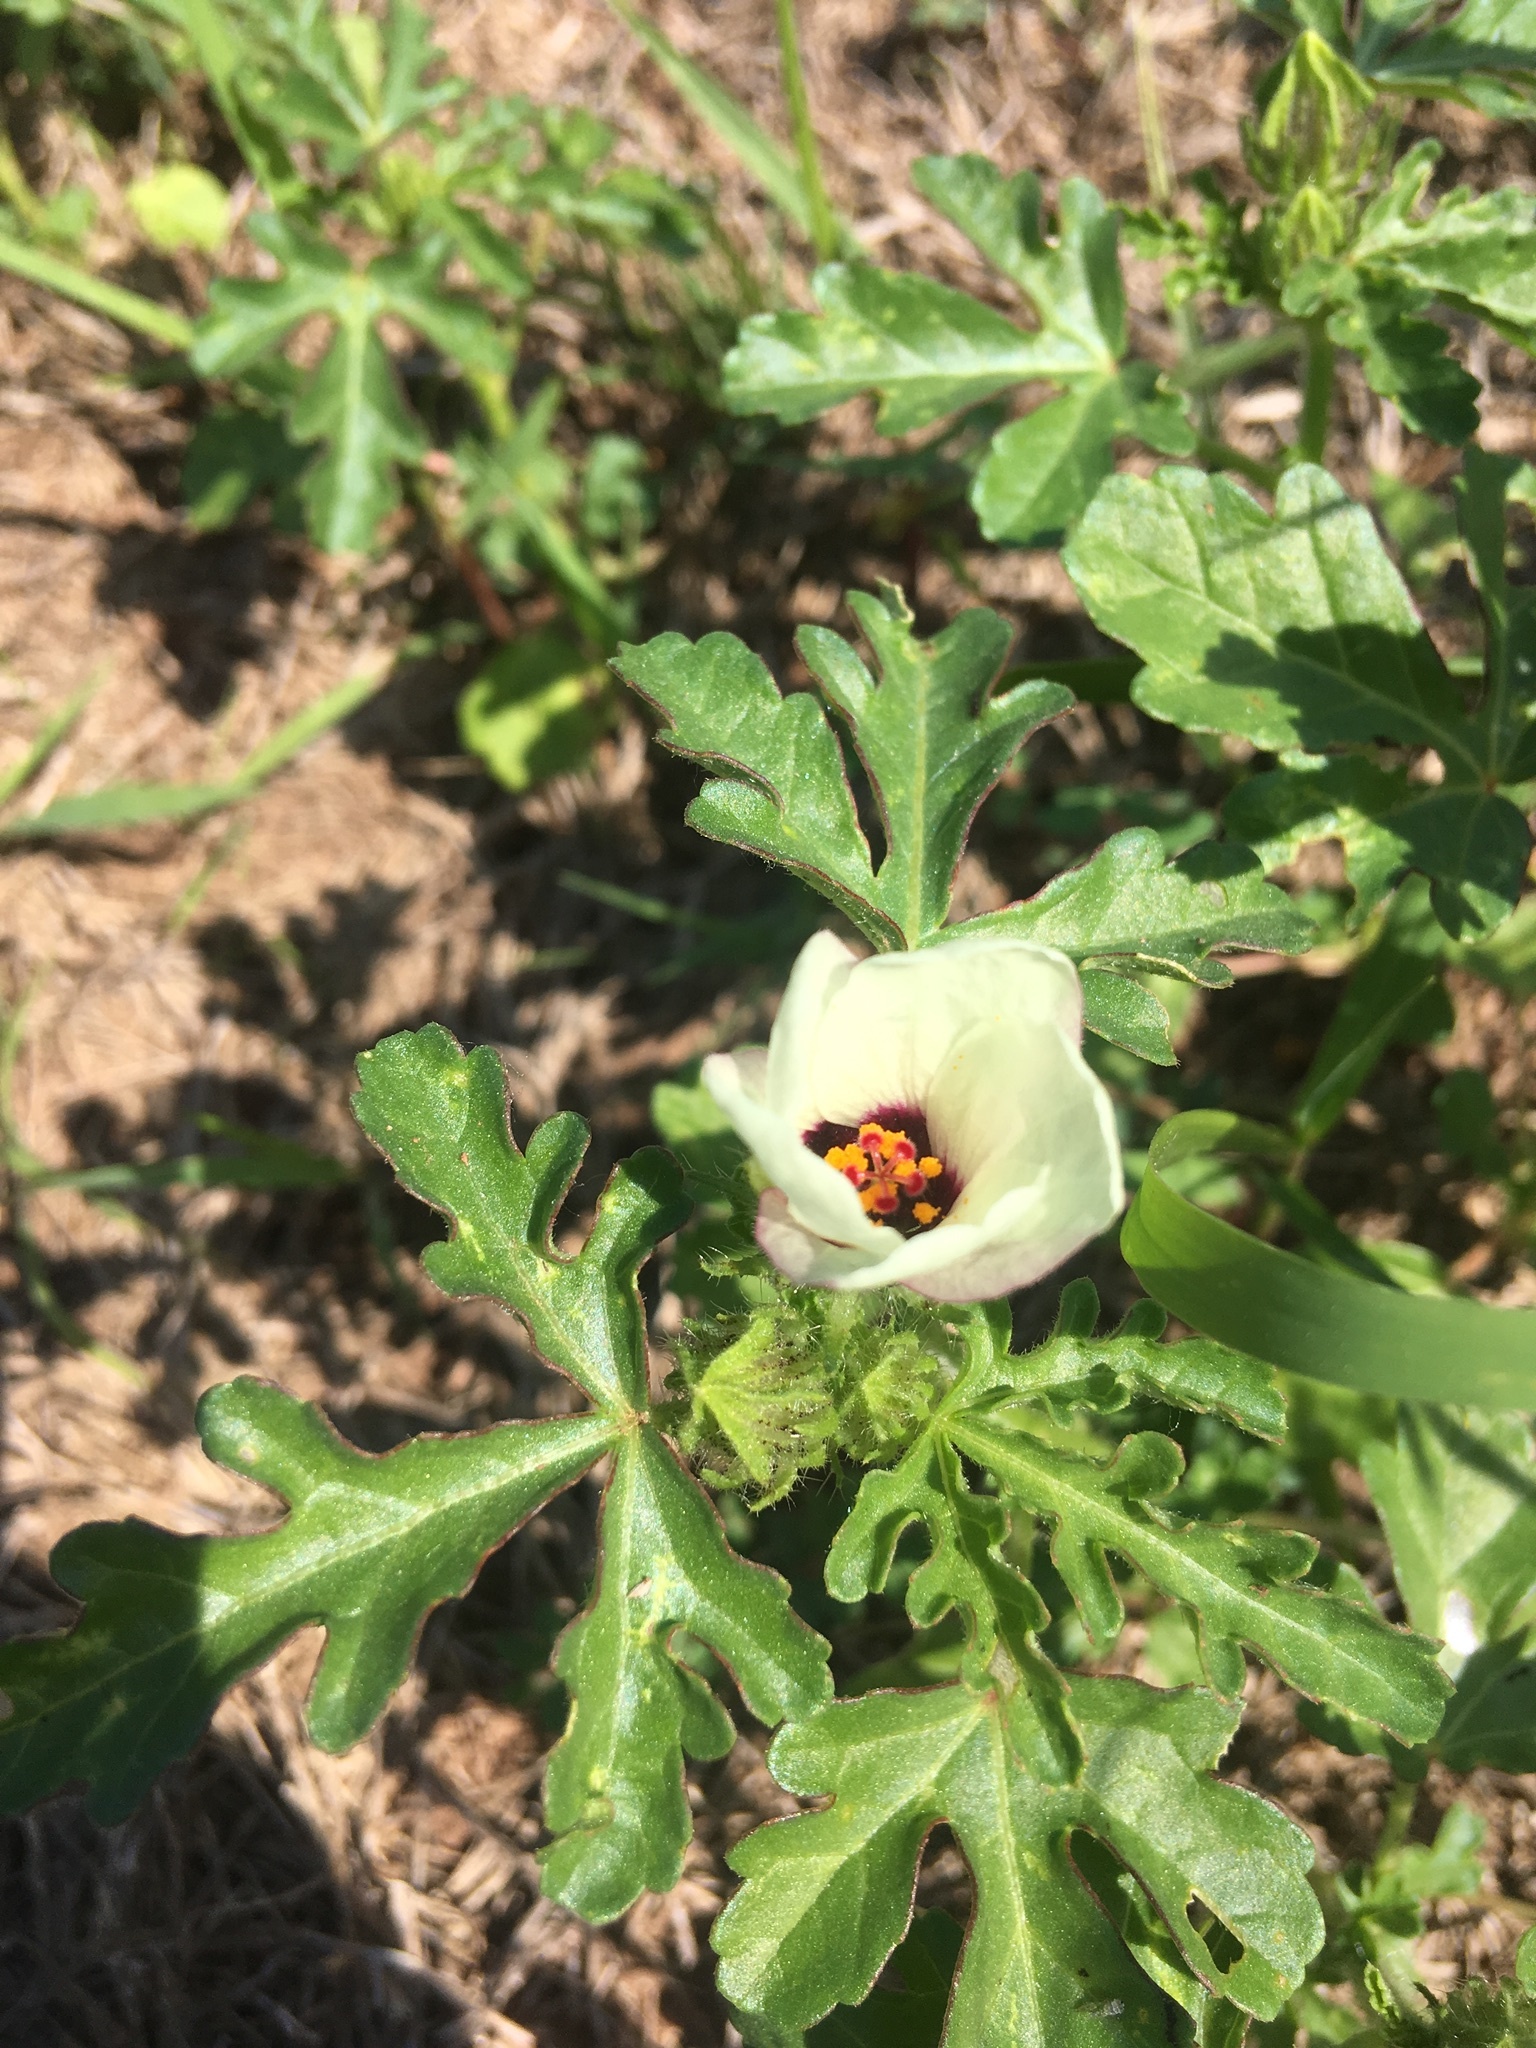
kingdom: Plantae
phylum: Tracheophyta
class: Magnoliopsida
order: Malvales
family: Malvaceae
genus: Hibiscus
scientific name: Hibiscus trionum
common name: Bladder ketmia
